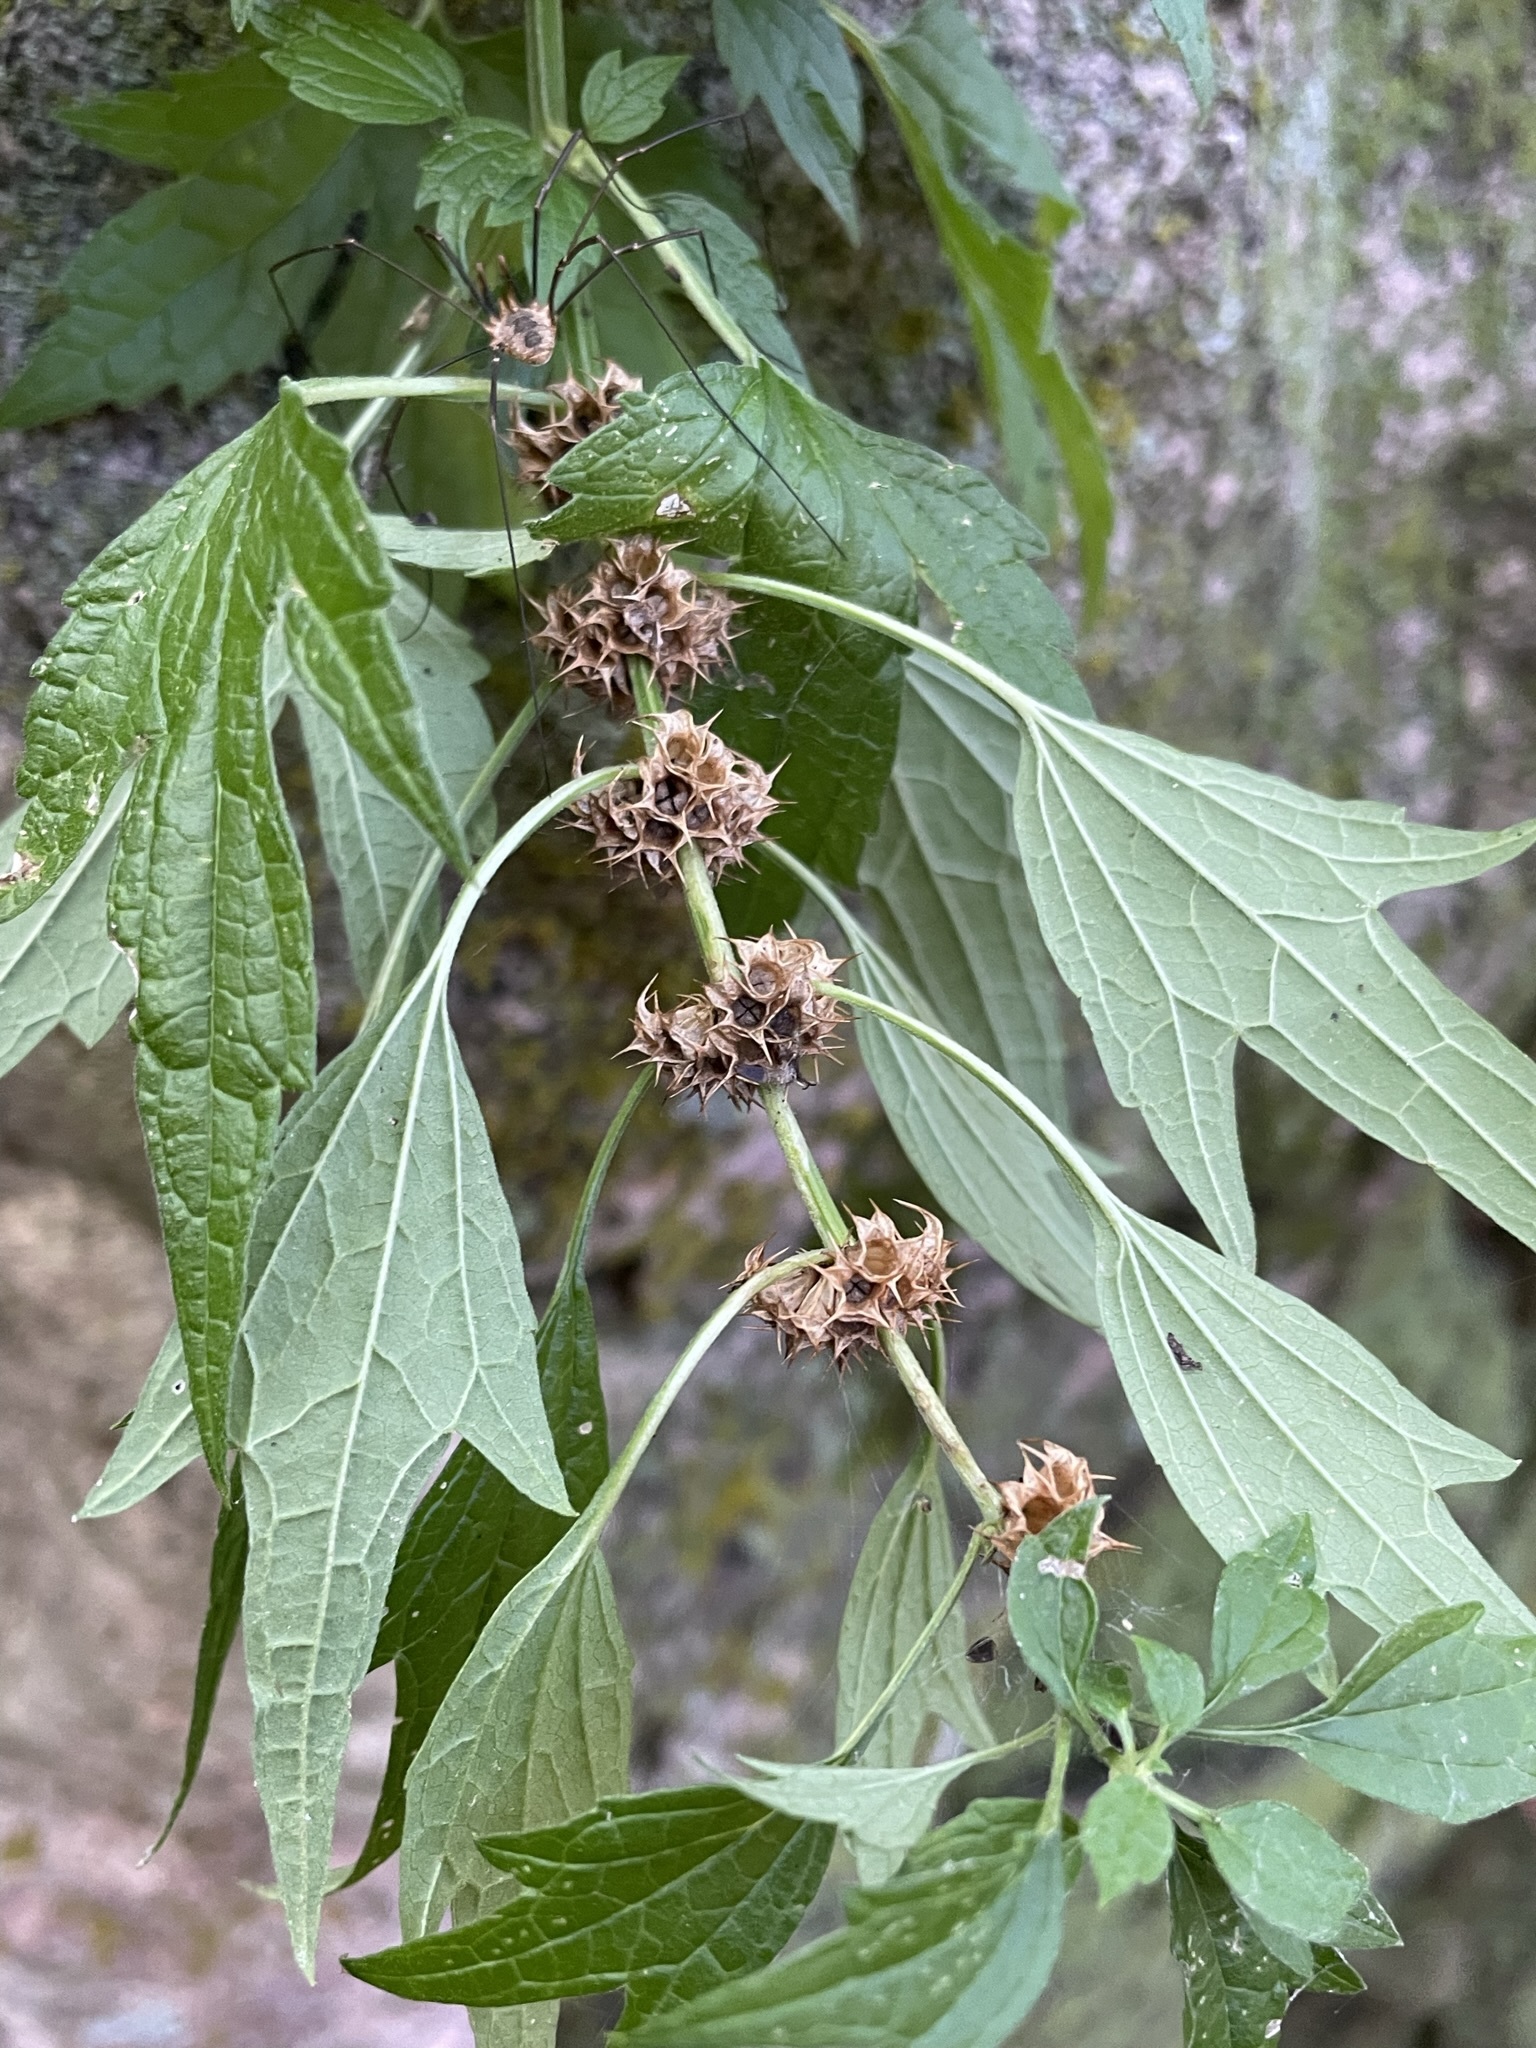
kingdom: Plantae
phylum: Tracheophyta
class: Magnoliopsida
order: Lamiales
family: Lamiaceae
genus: Leonurus
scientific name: Leonurus cardiaca
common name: Motherwort
